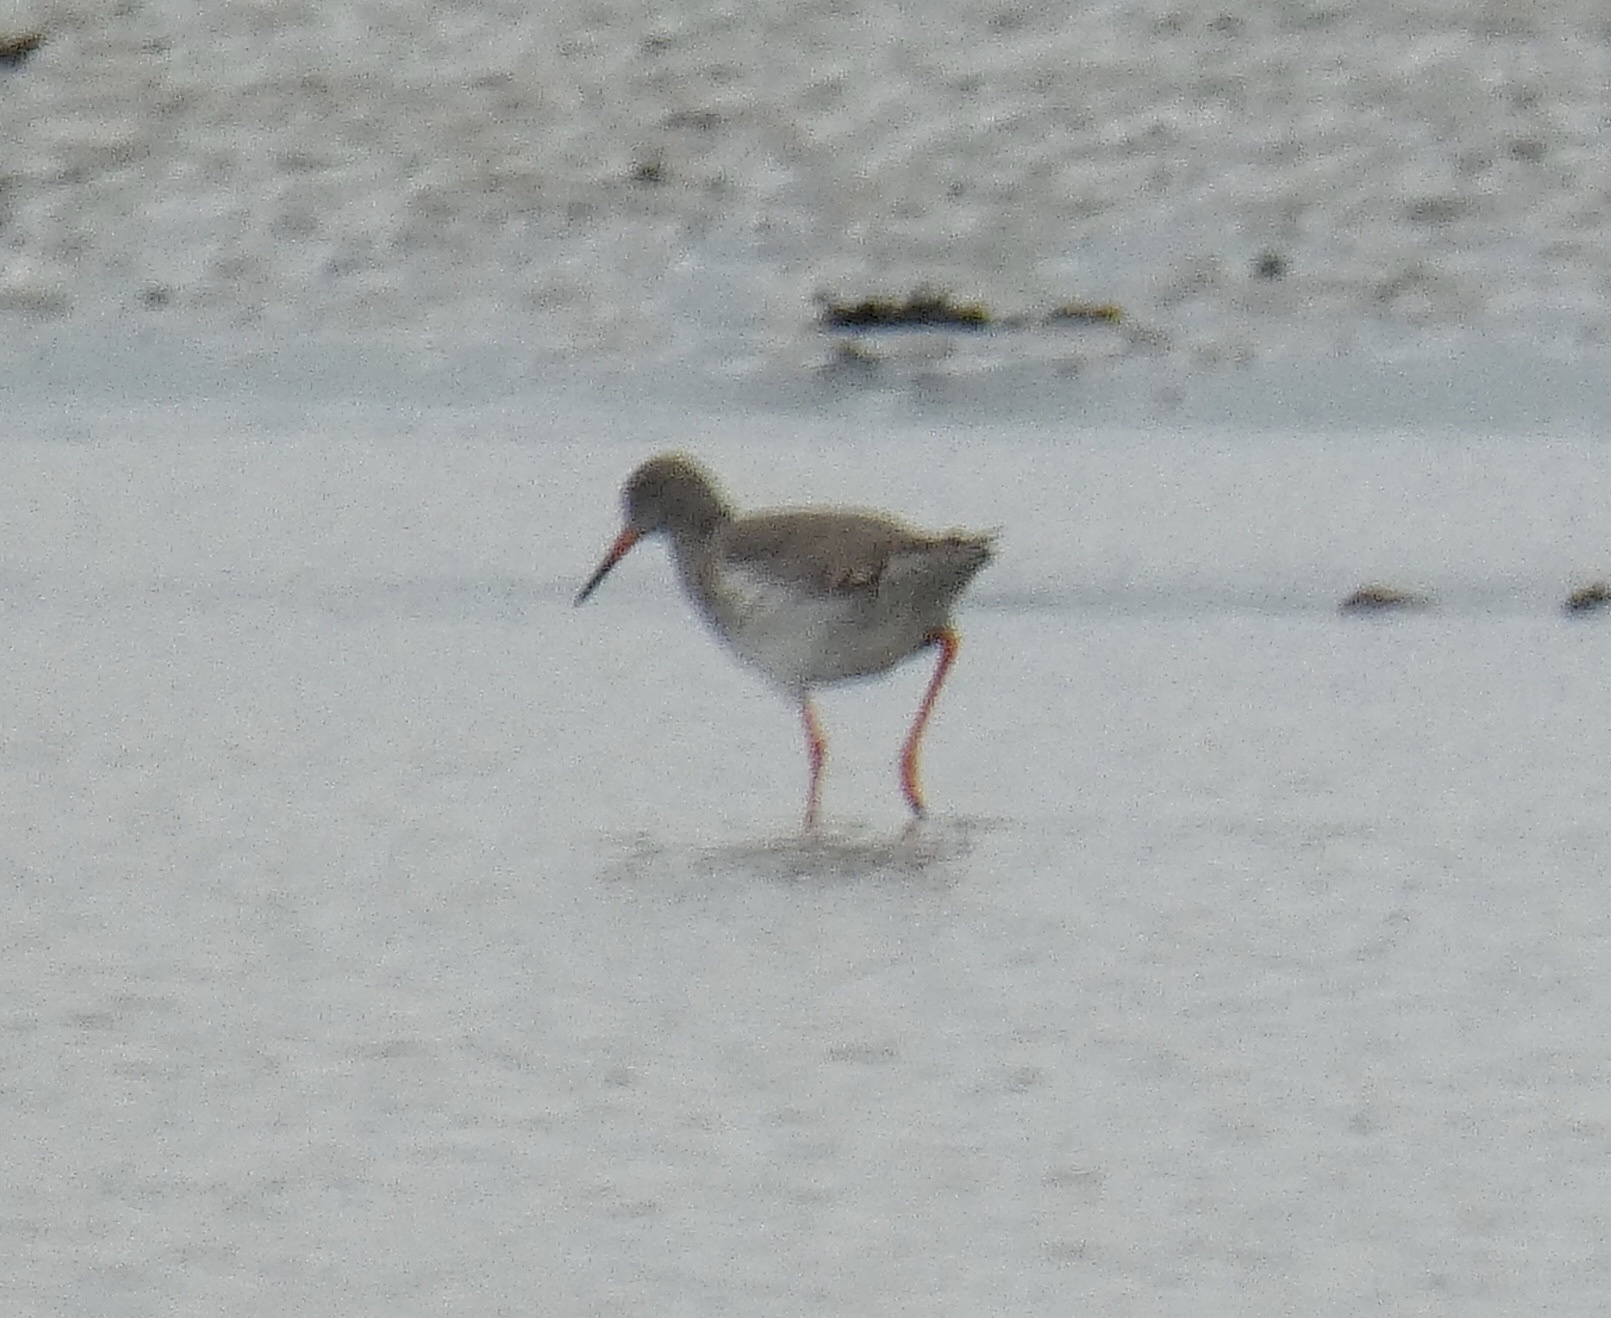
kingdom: Animalia
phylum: Chordata
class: Aves
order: Charadriiformes
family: Scolopacidae
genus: Tringa
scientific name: Tringa totanus
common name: Common redshank
